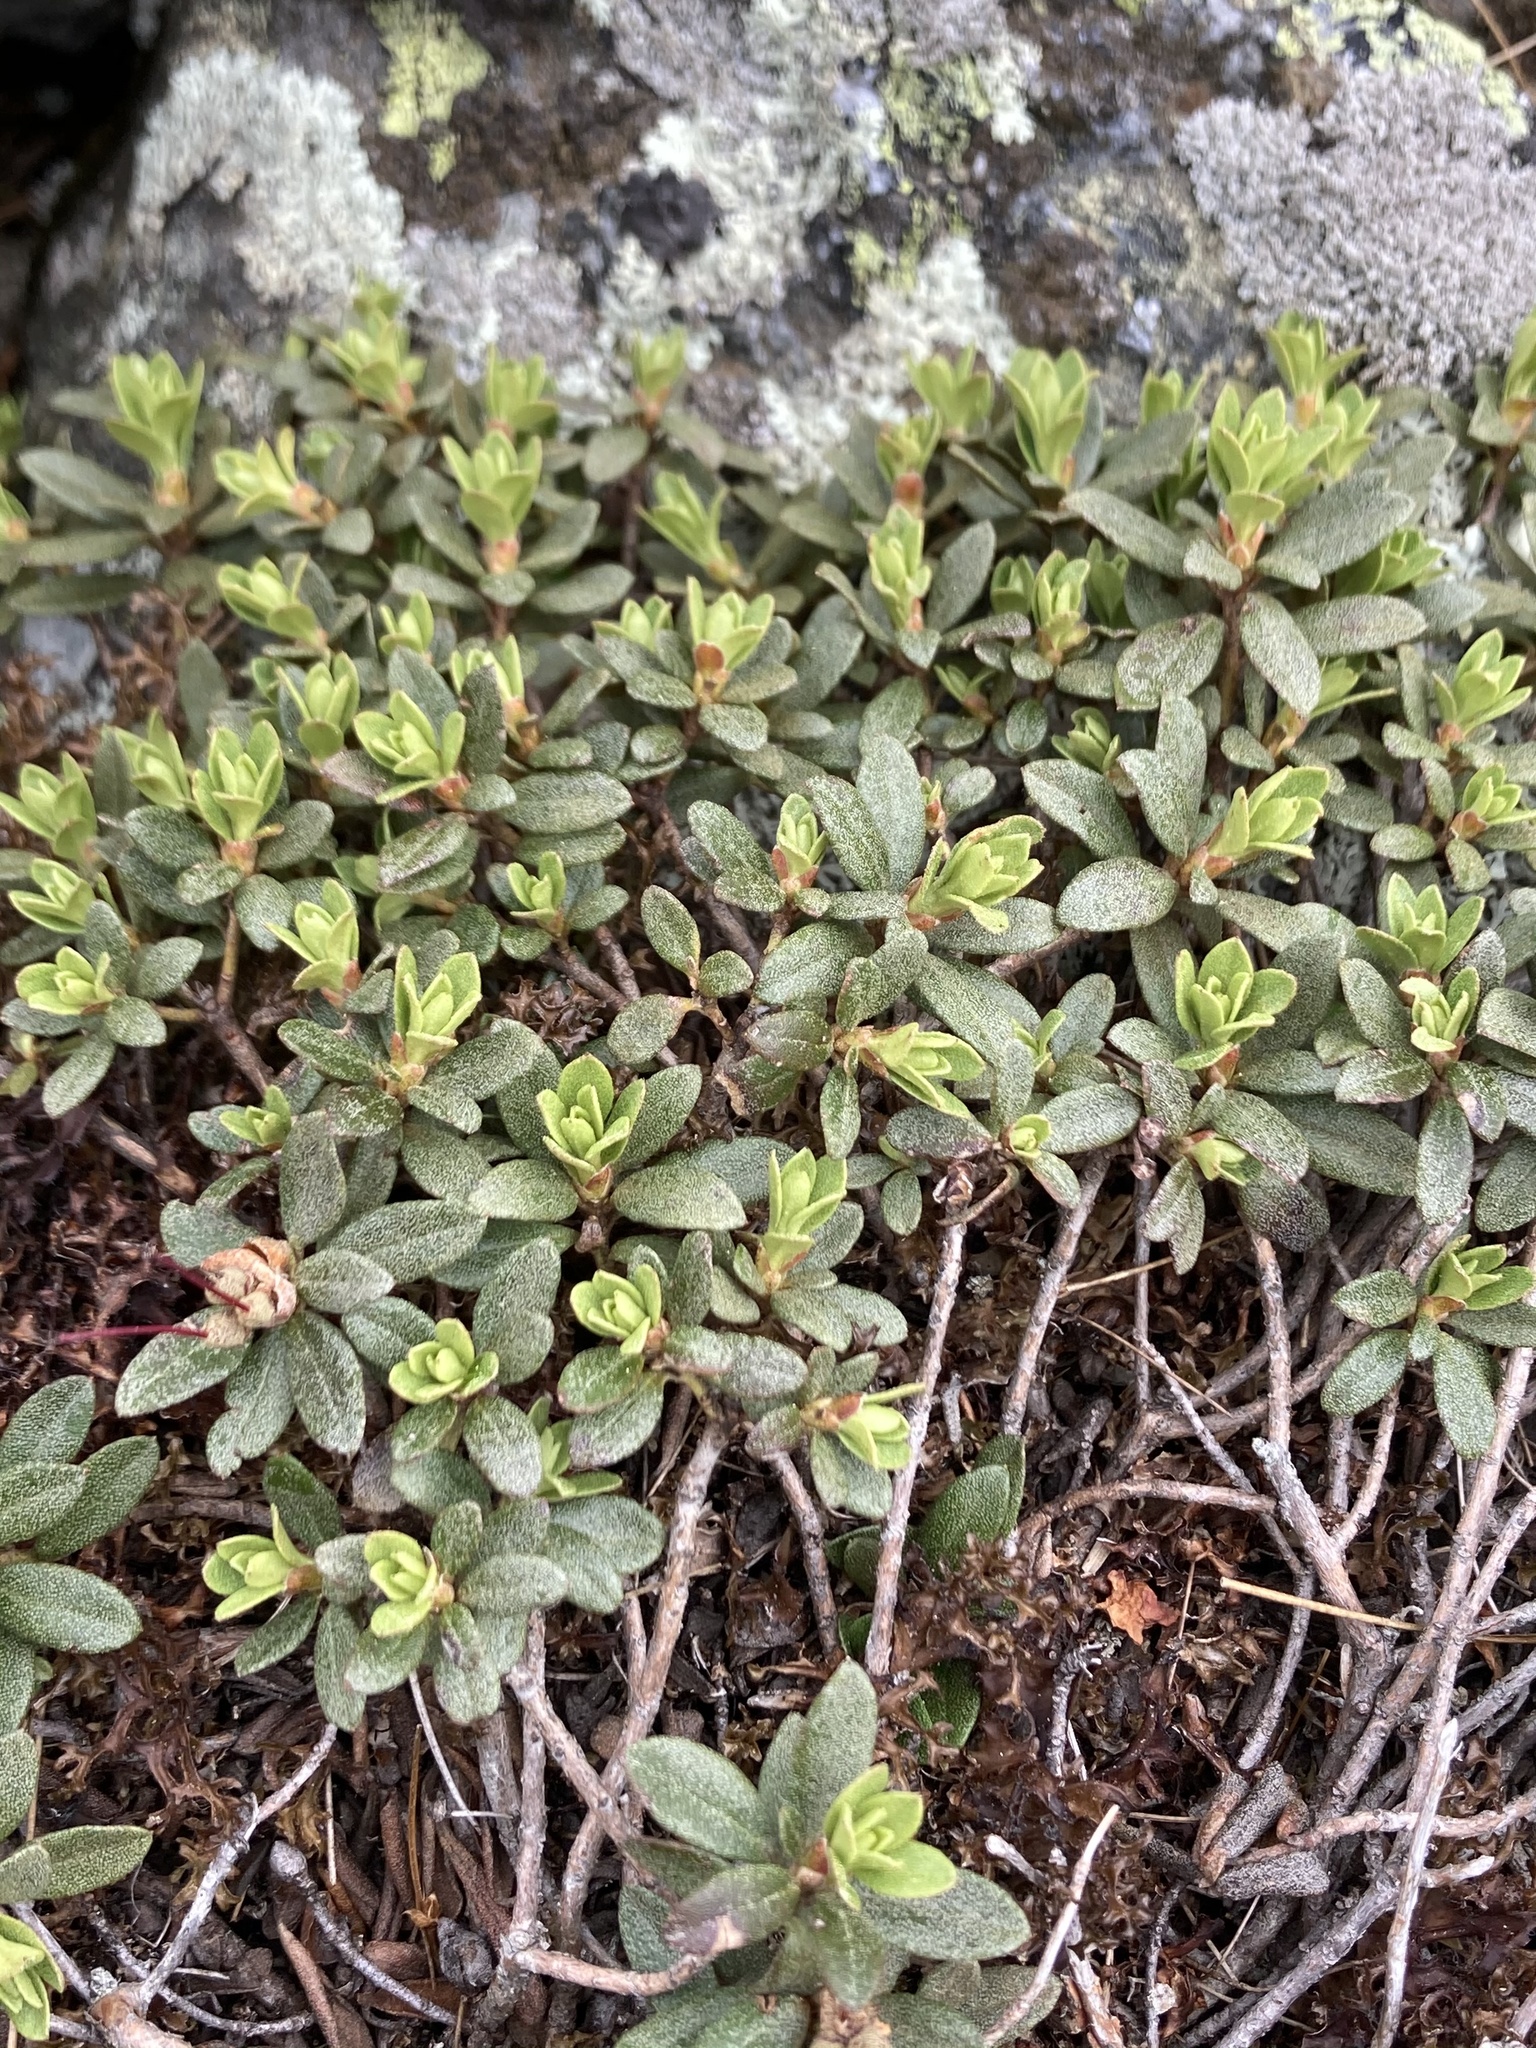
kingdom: Plantae
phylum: Tracheophyta
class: Magnoliopsida
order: Ericales
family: Ericaceae
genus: Rhododendron
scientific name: Rhododendron lapponicum
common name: Lapland rhododendron
